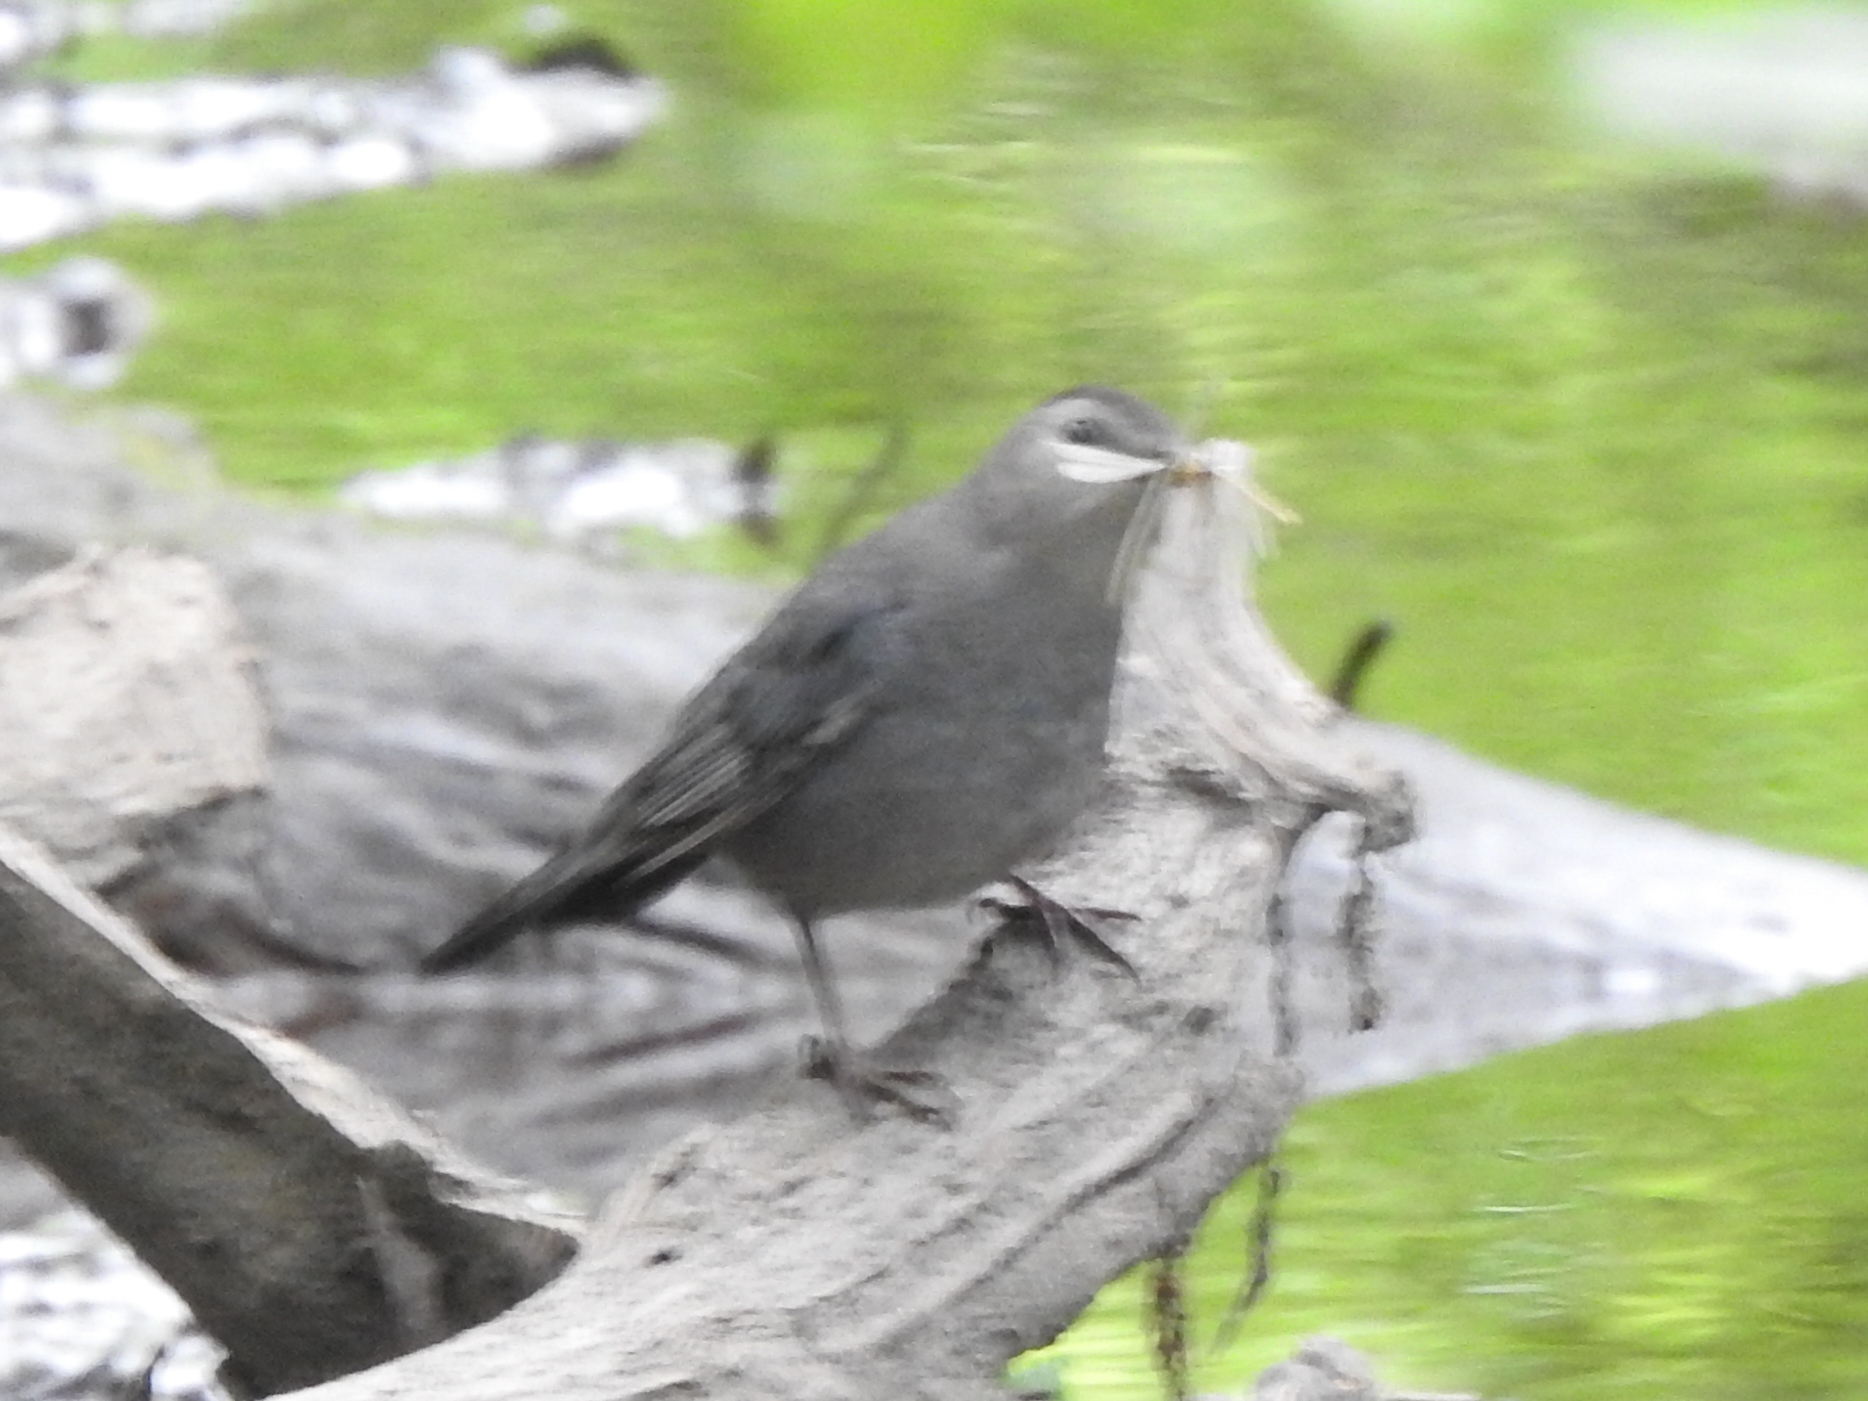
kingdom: Animalia
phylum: Chordata
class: Aves
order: Passeriformes
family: Mimidae
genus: Dumetella
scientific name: Dumetella carolinensis
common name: Gray catbird
